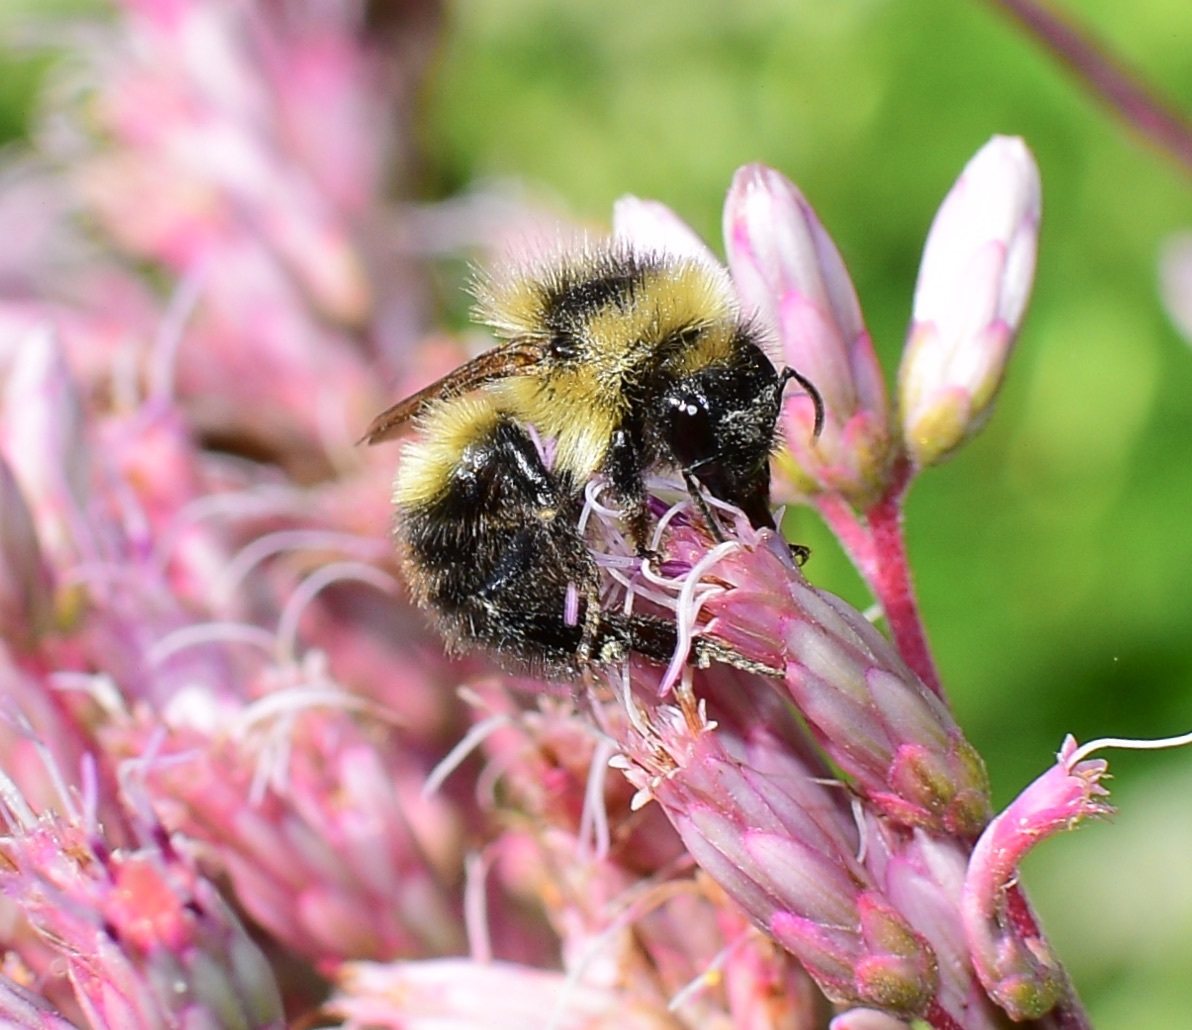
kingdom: Animalia
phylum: Arthropoda
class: Insecta
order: Hymenoptera
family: Apidae
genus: Bombus
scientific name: Bombus rufocinctus
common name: Red-belted bumble bee
